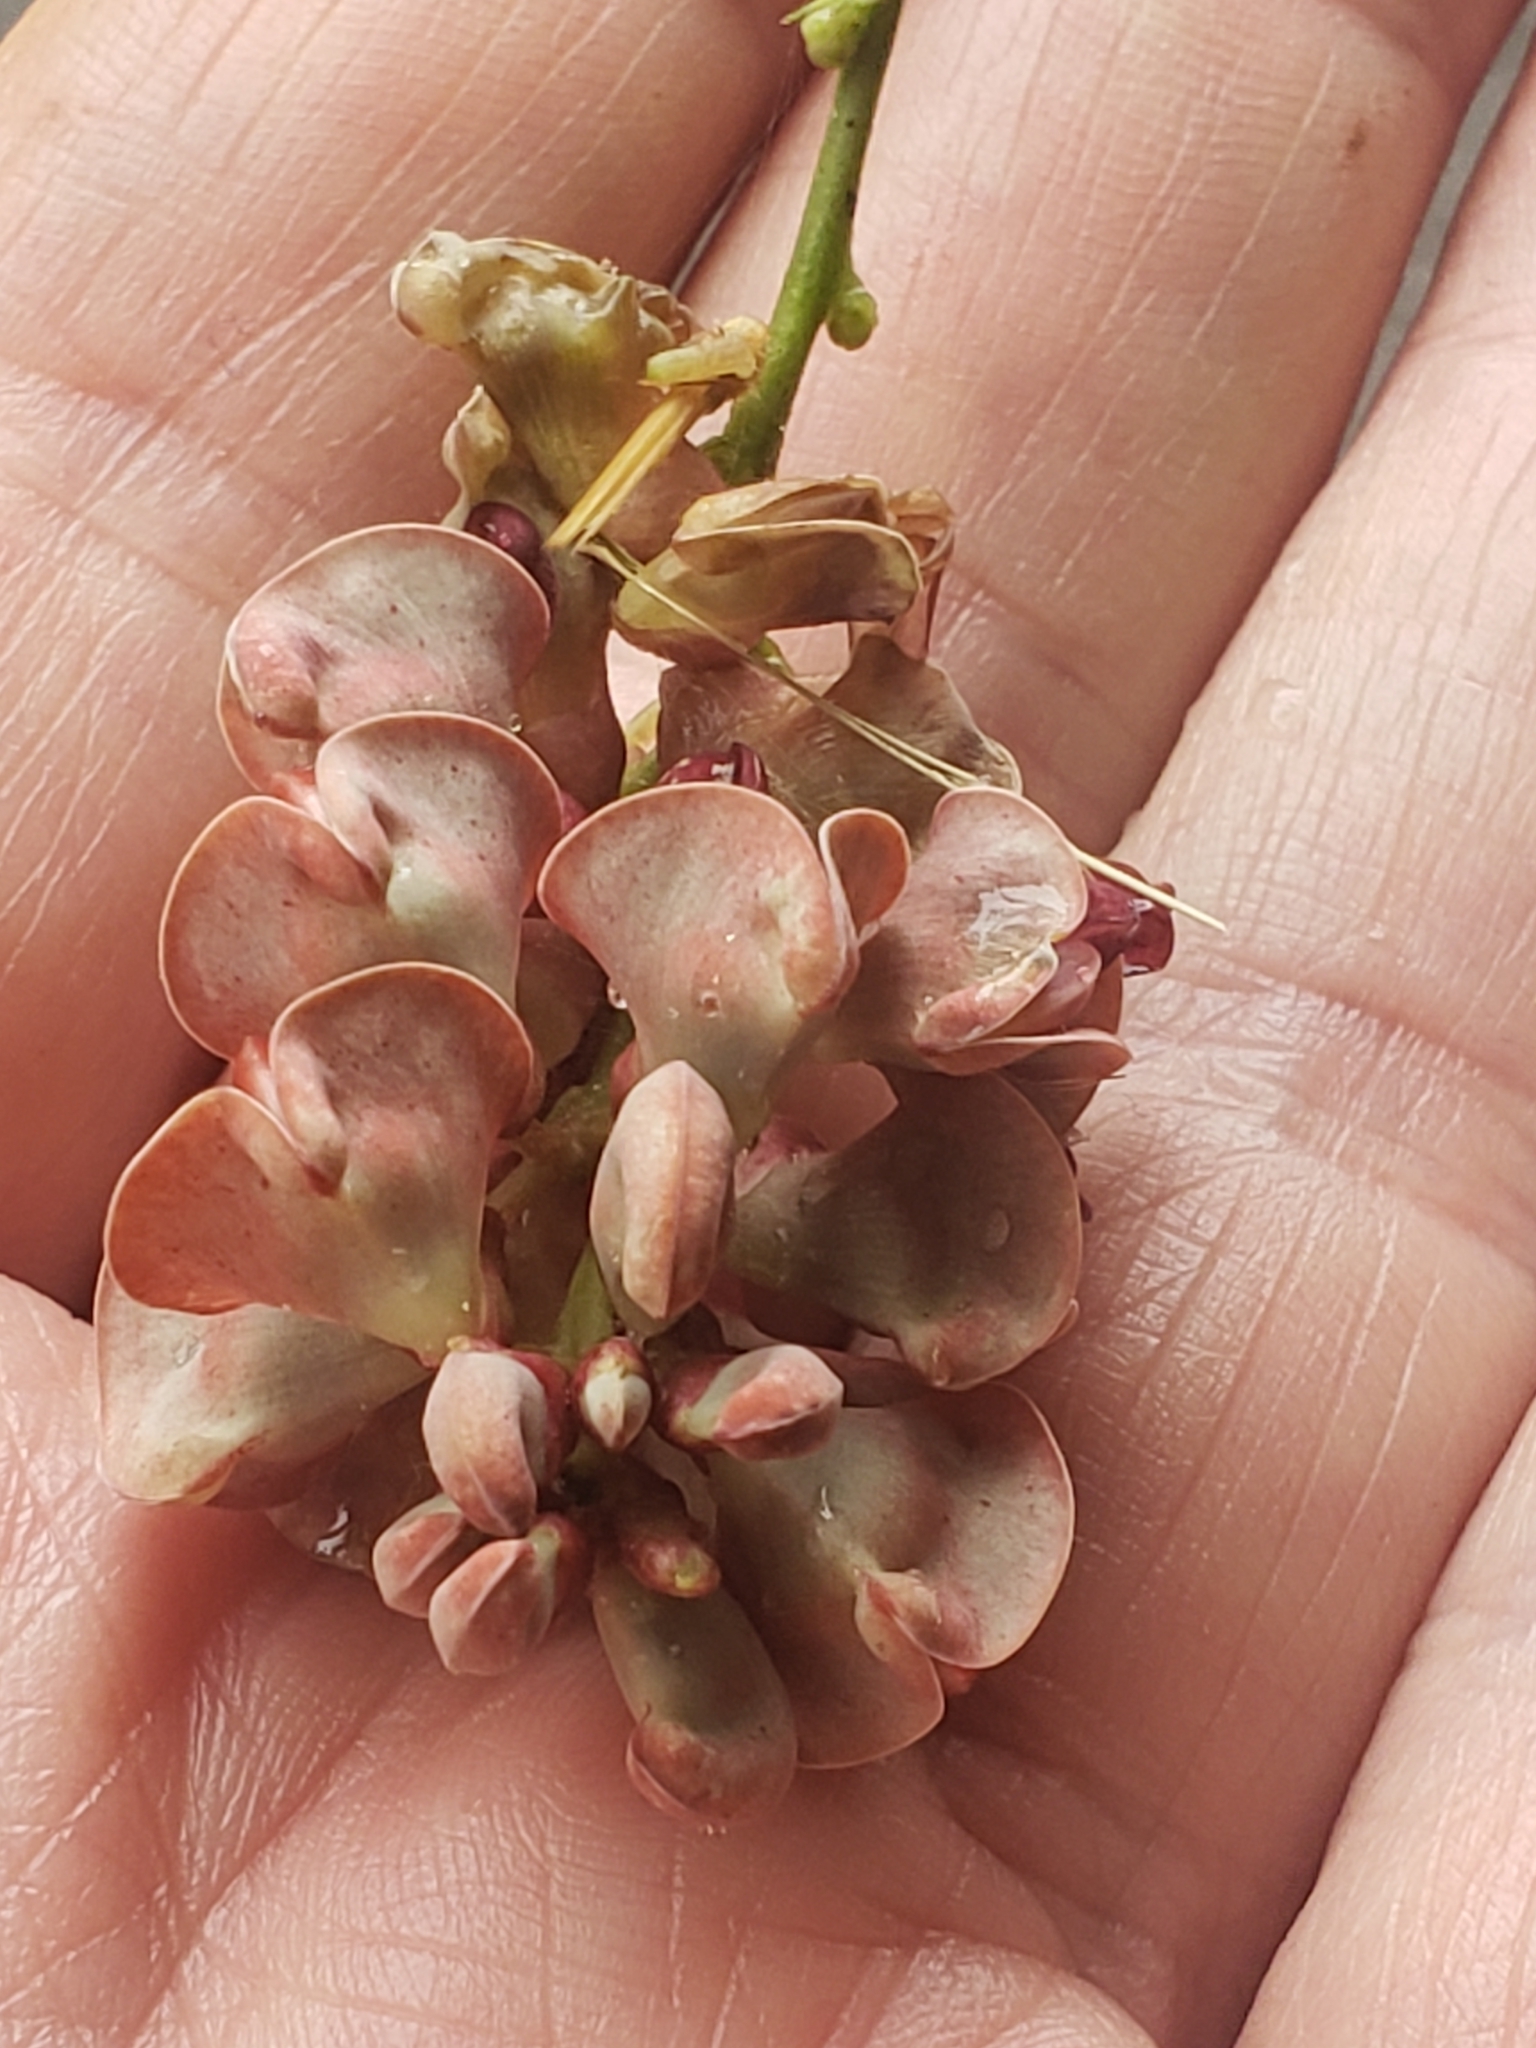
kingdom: Plantae
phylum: Tracheophyta
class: Magnoliopsida
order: Fabales
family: Fabaceae
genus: Apios
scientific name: Apios americana
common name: American potato-bean
